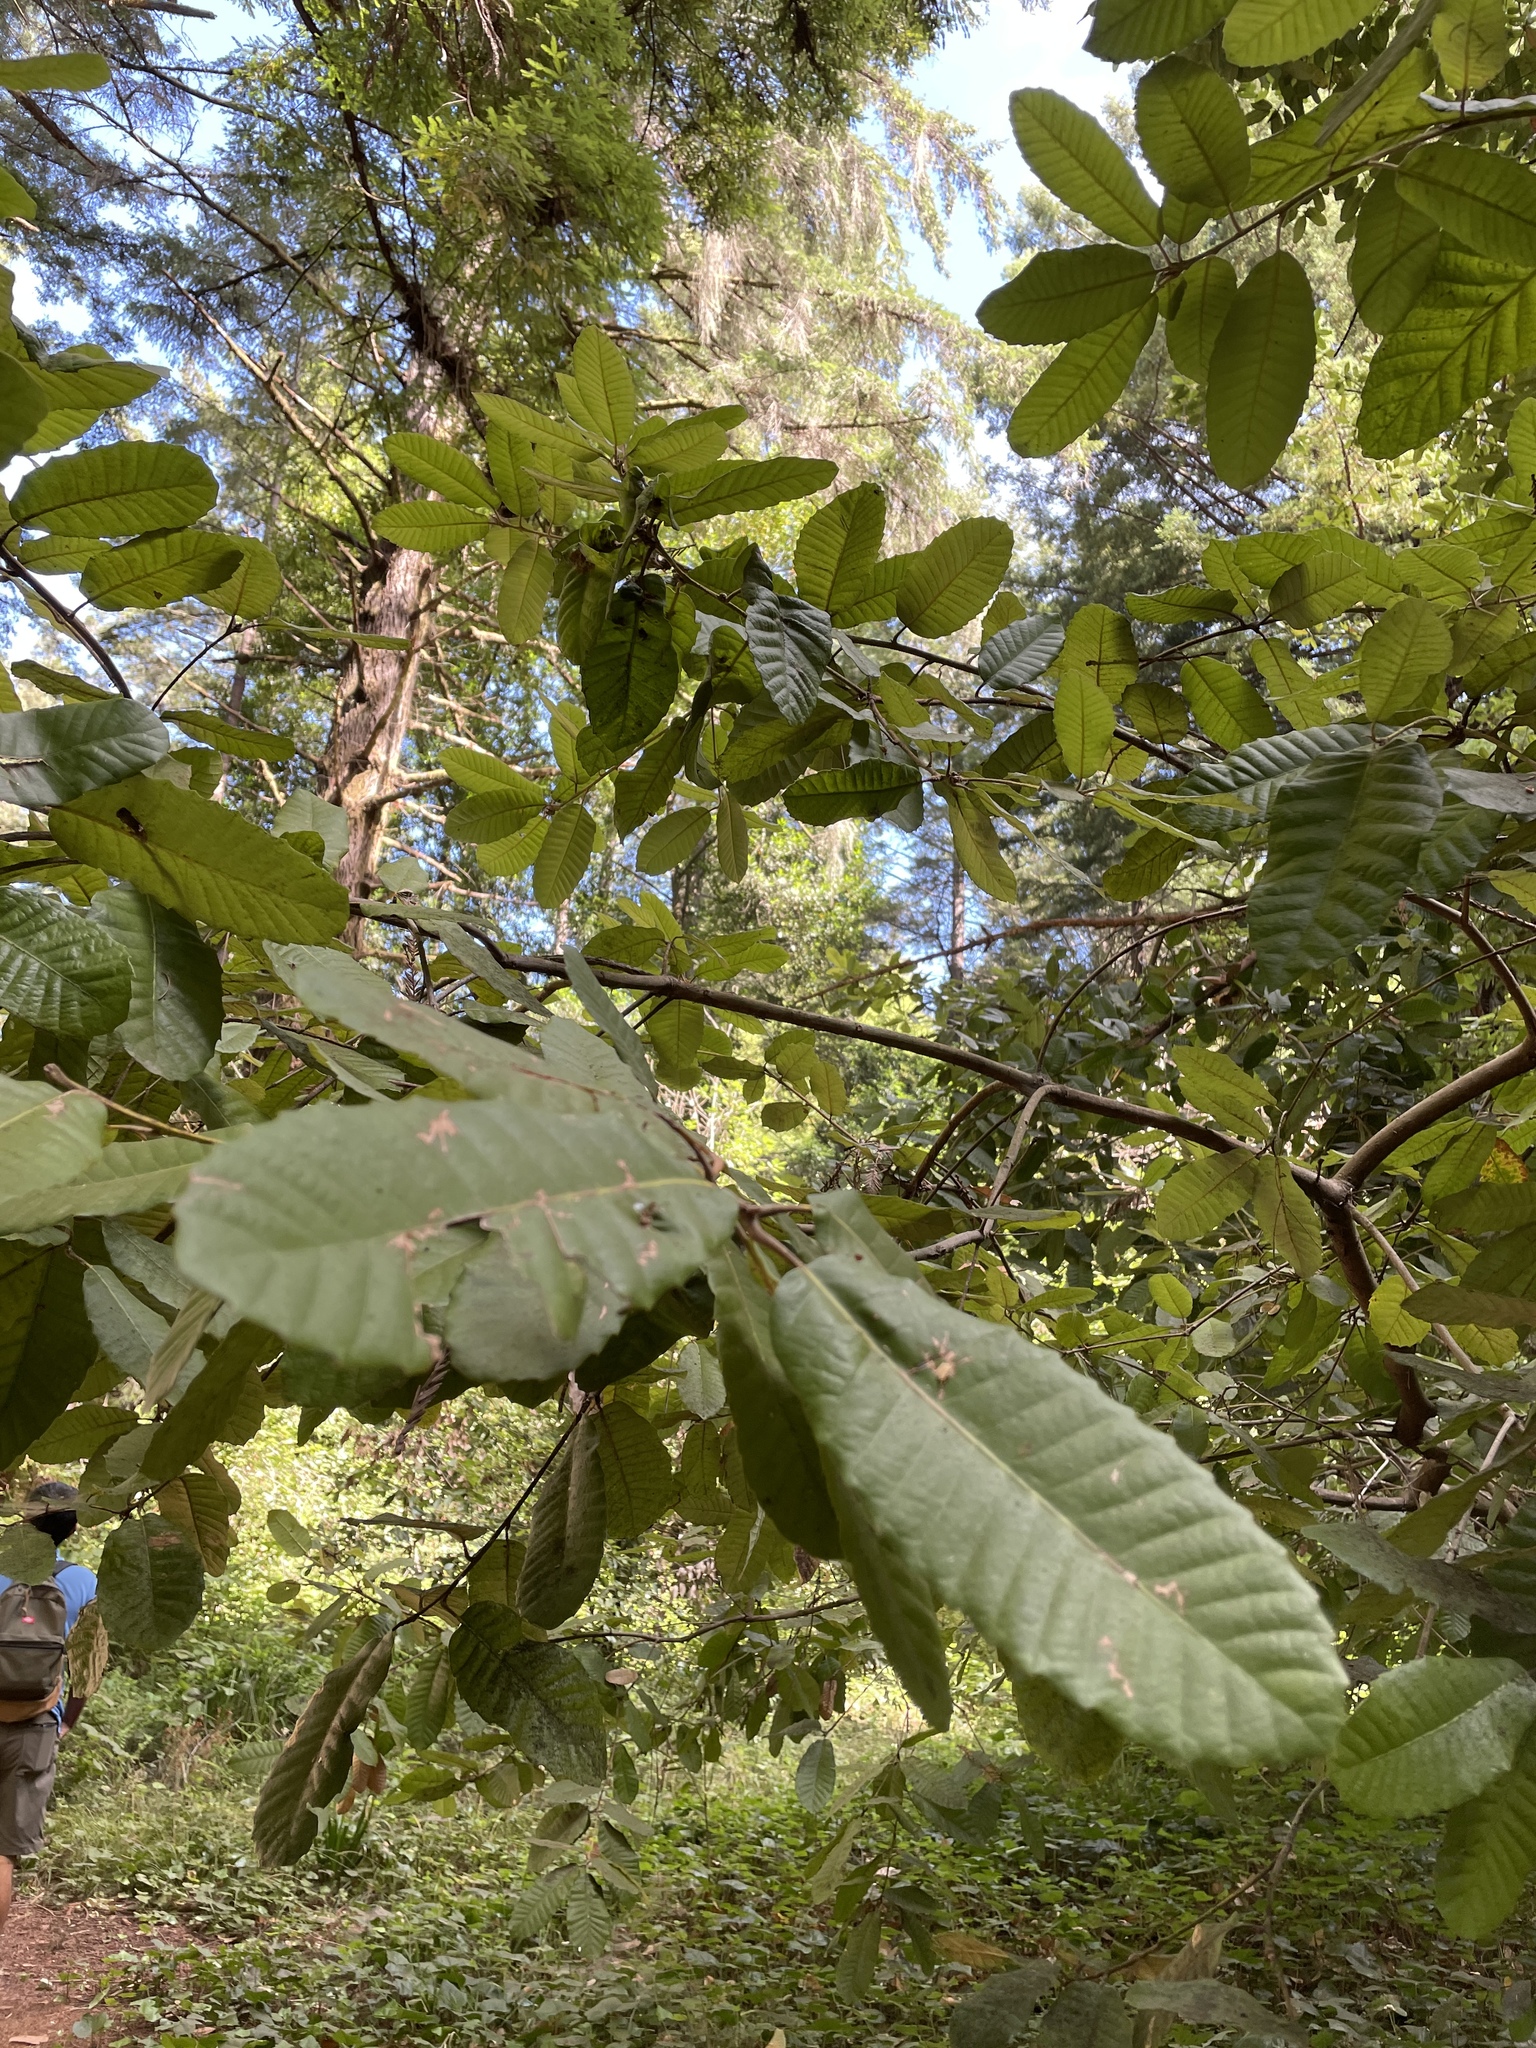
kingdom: Plantae
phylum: Tracheophyta
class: Magnoliopsida
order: Fagales
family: Fagaceae
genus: Notholithocarpus
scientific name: Notholithocarpus densiflorus
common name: Tan bark oak
